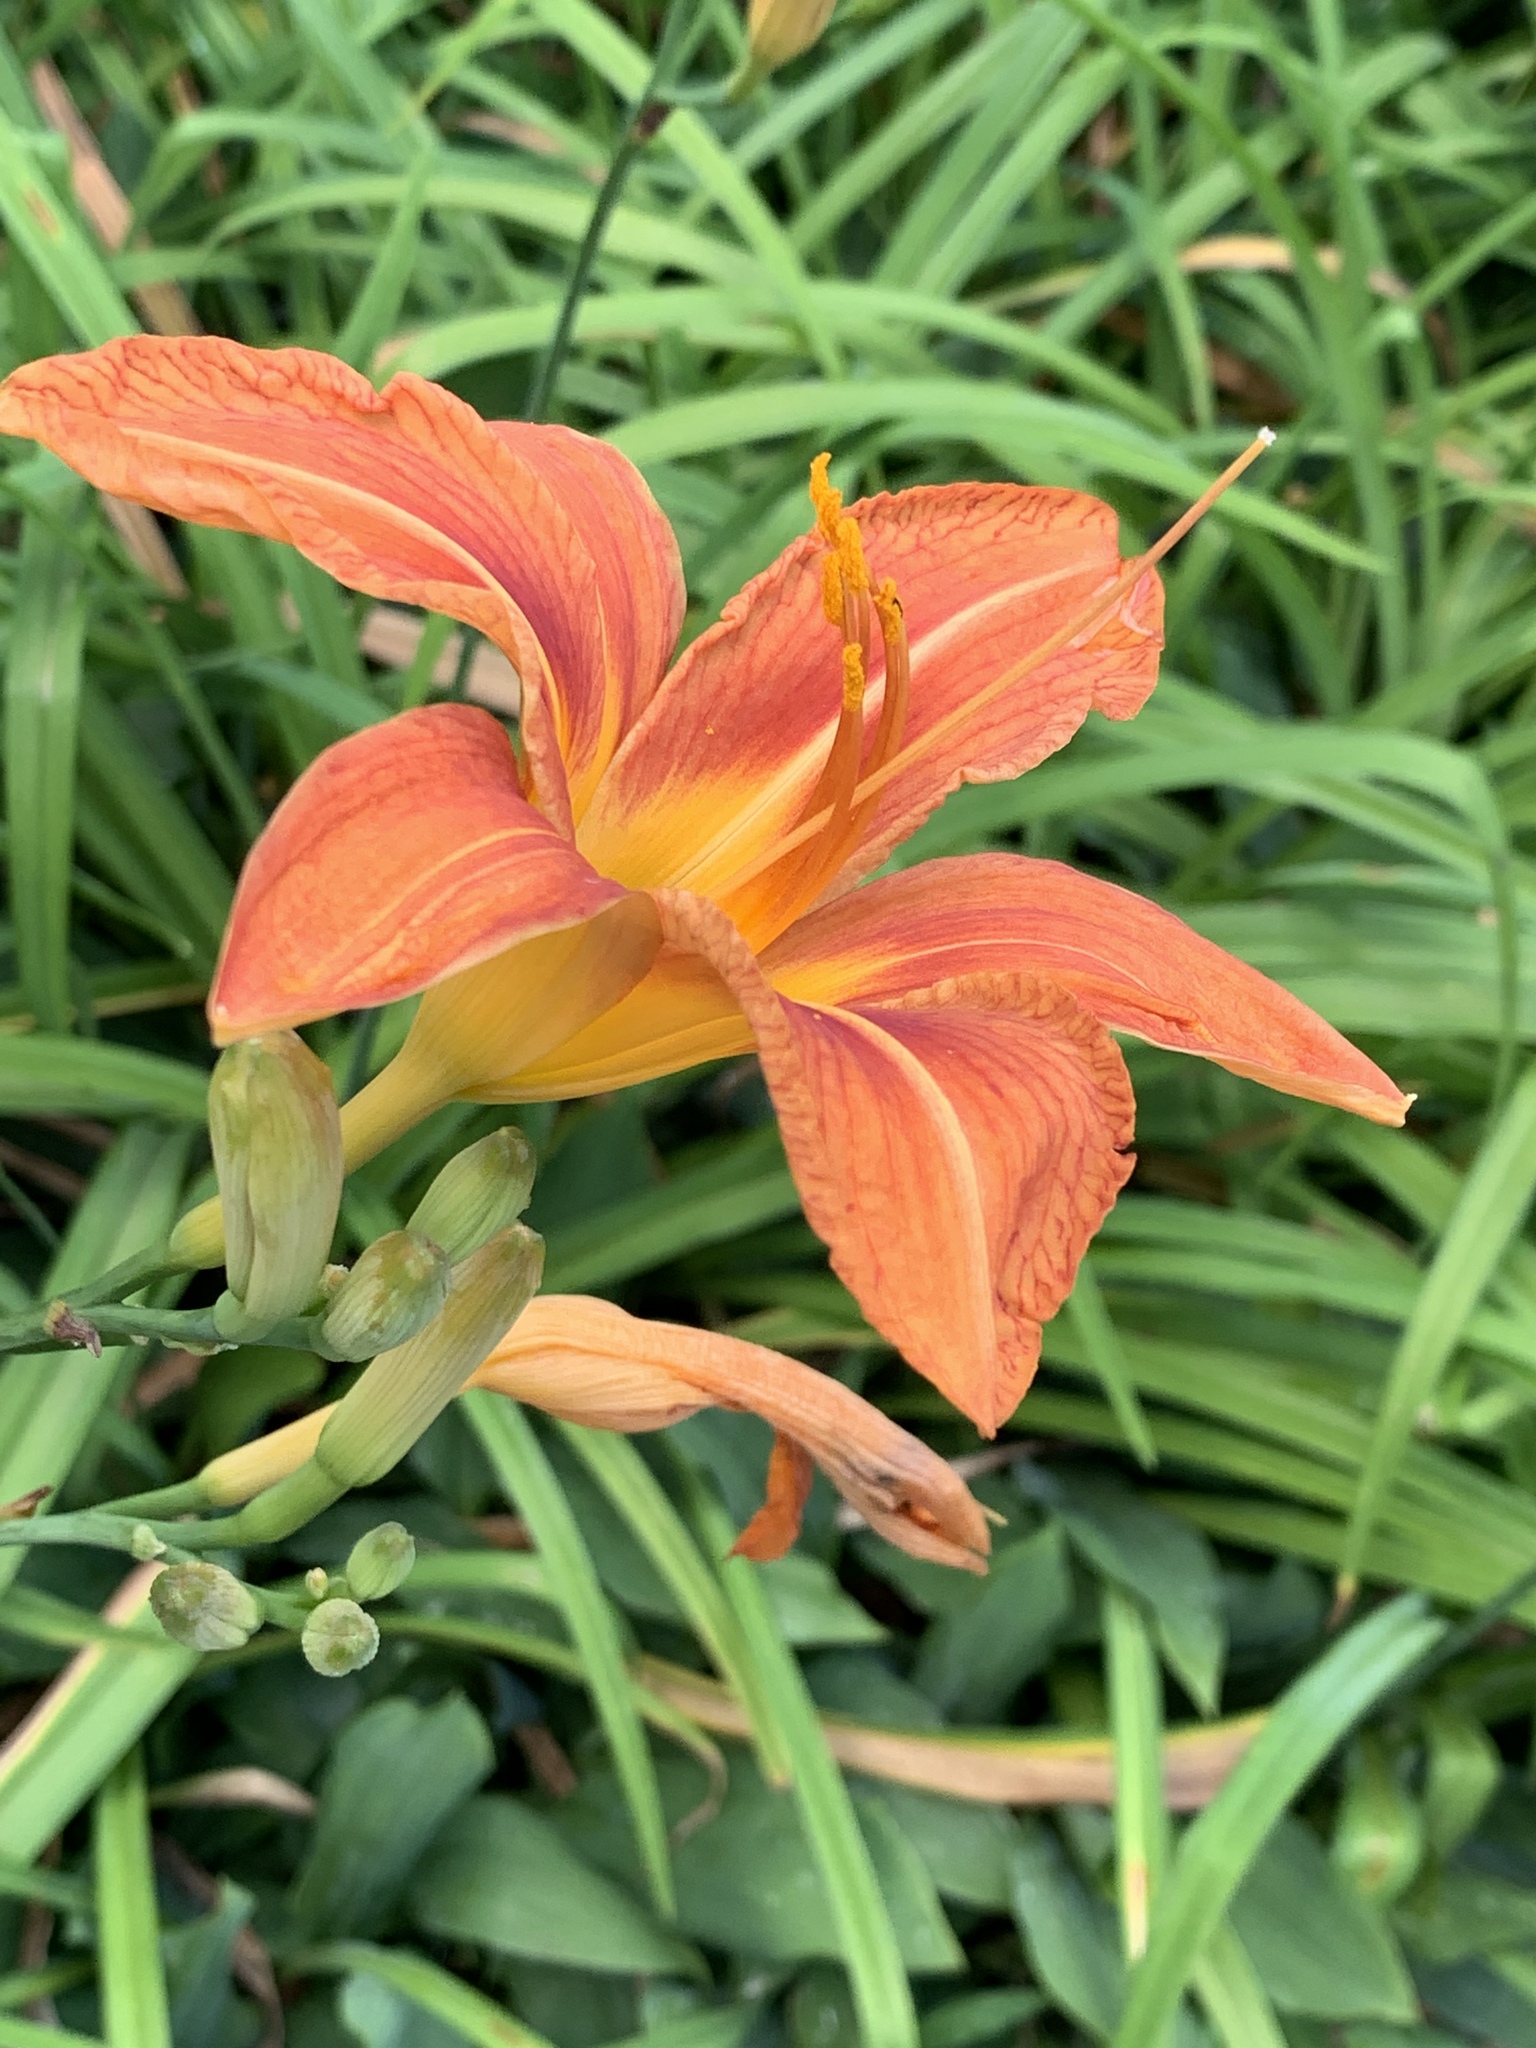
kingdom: Plantae
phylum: Tracheophyta
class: Liliopsida
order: Asparagales
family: Asphodelaceae
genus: Hemerocallis
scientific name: Hemerocallis fulva
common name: Orange day-lily
